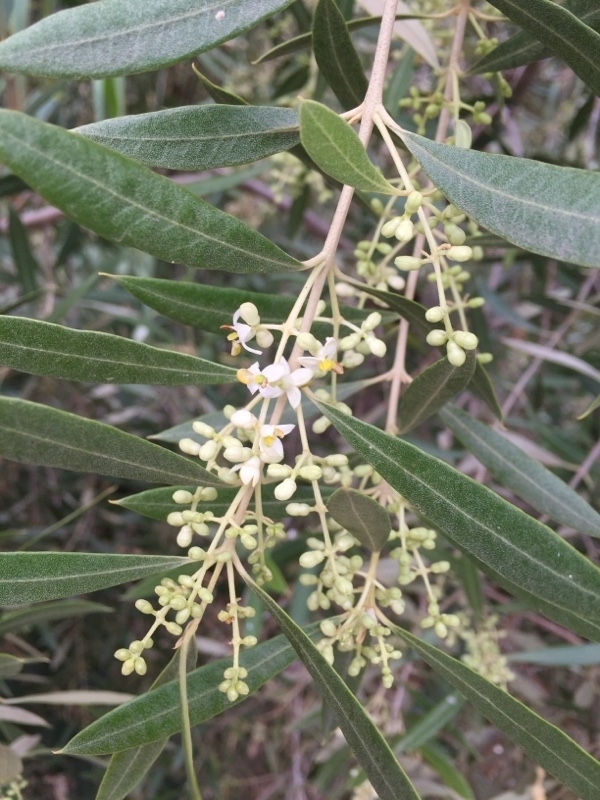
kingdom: Plantae
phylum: Tracheophyta
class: Magnoliopsida
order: Lamiales
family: Oleaceae
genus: Olea
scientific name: Olea europaea
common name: Olive
